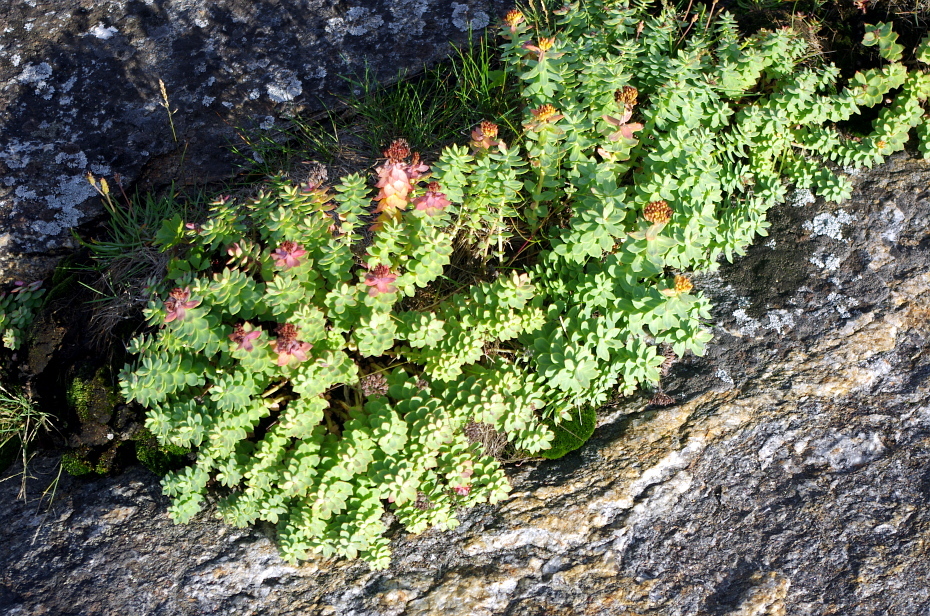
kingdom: Plantae
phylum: Tracheophyta
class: Magnoliopsida
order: Saxifragales
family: Crassulaceae
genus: Rhodiola
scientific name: Rhodiola rosea
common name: Roseroot
